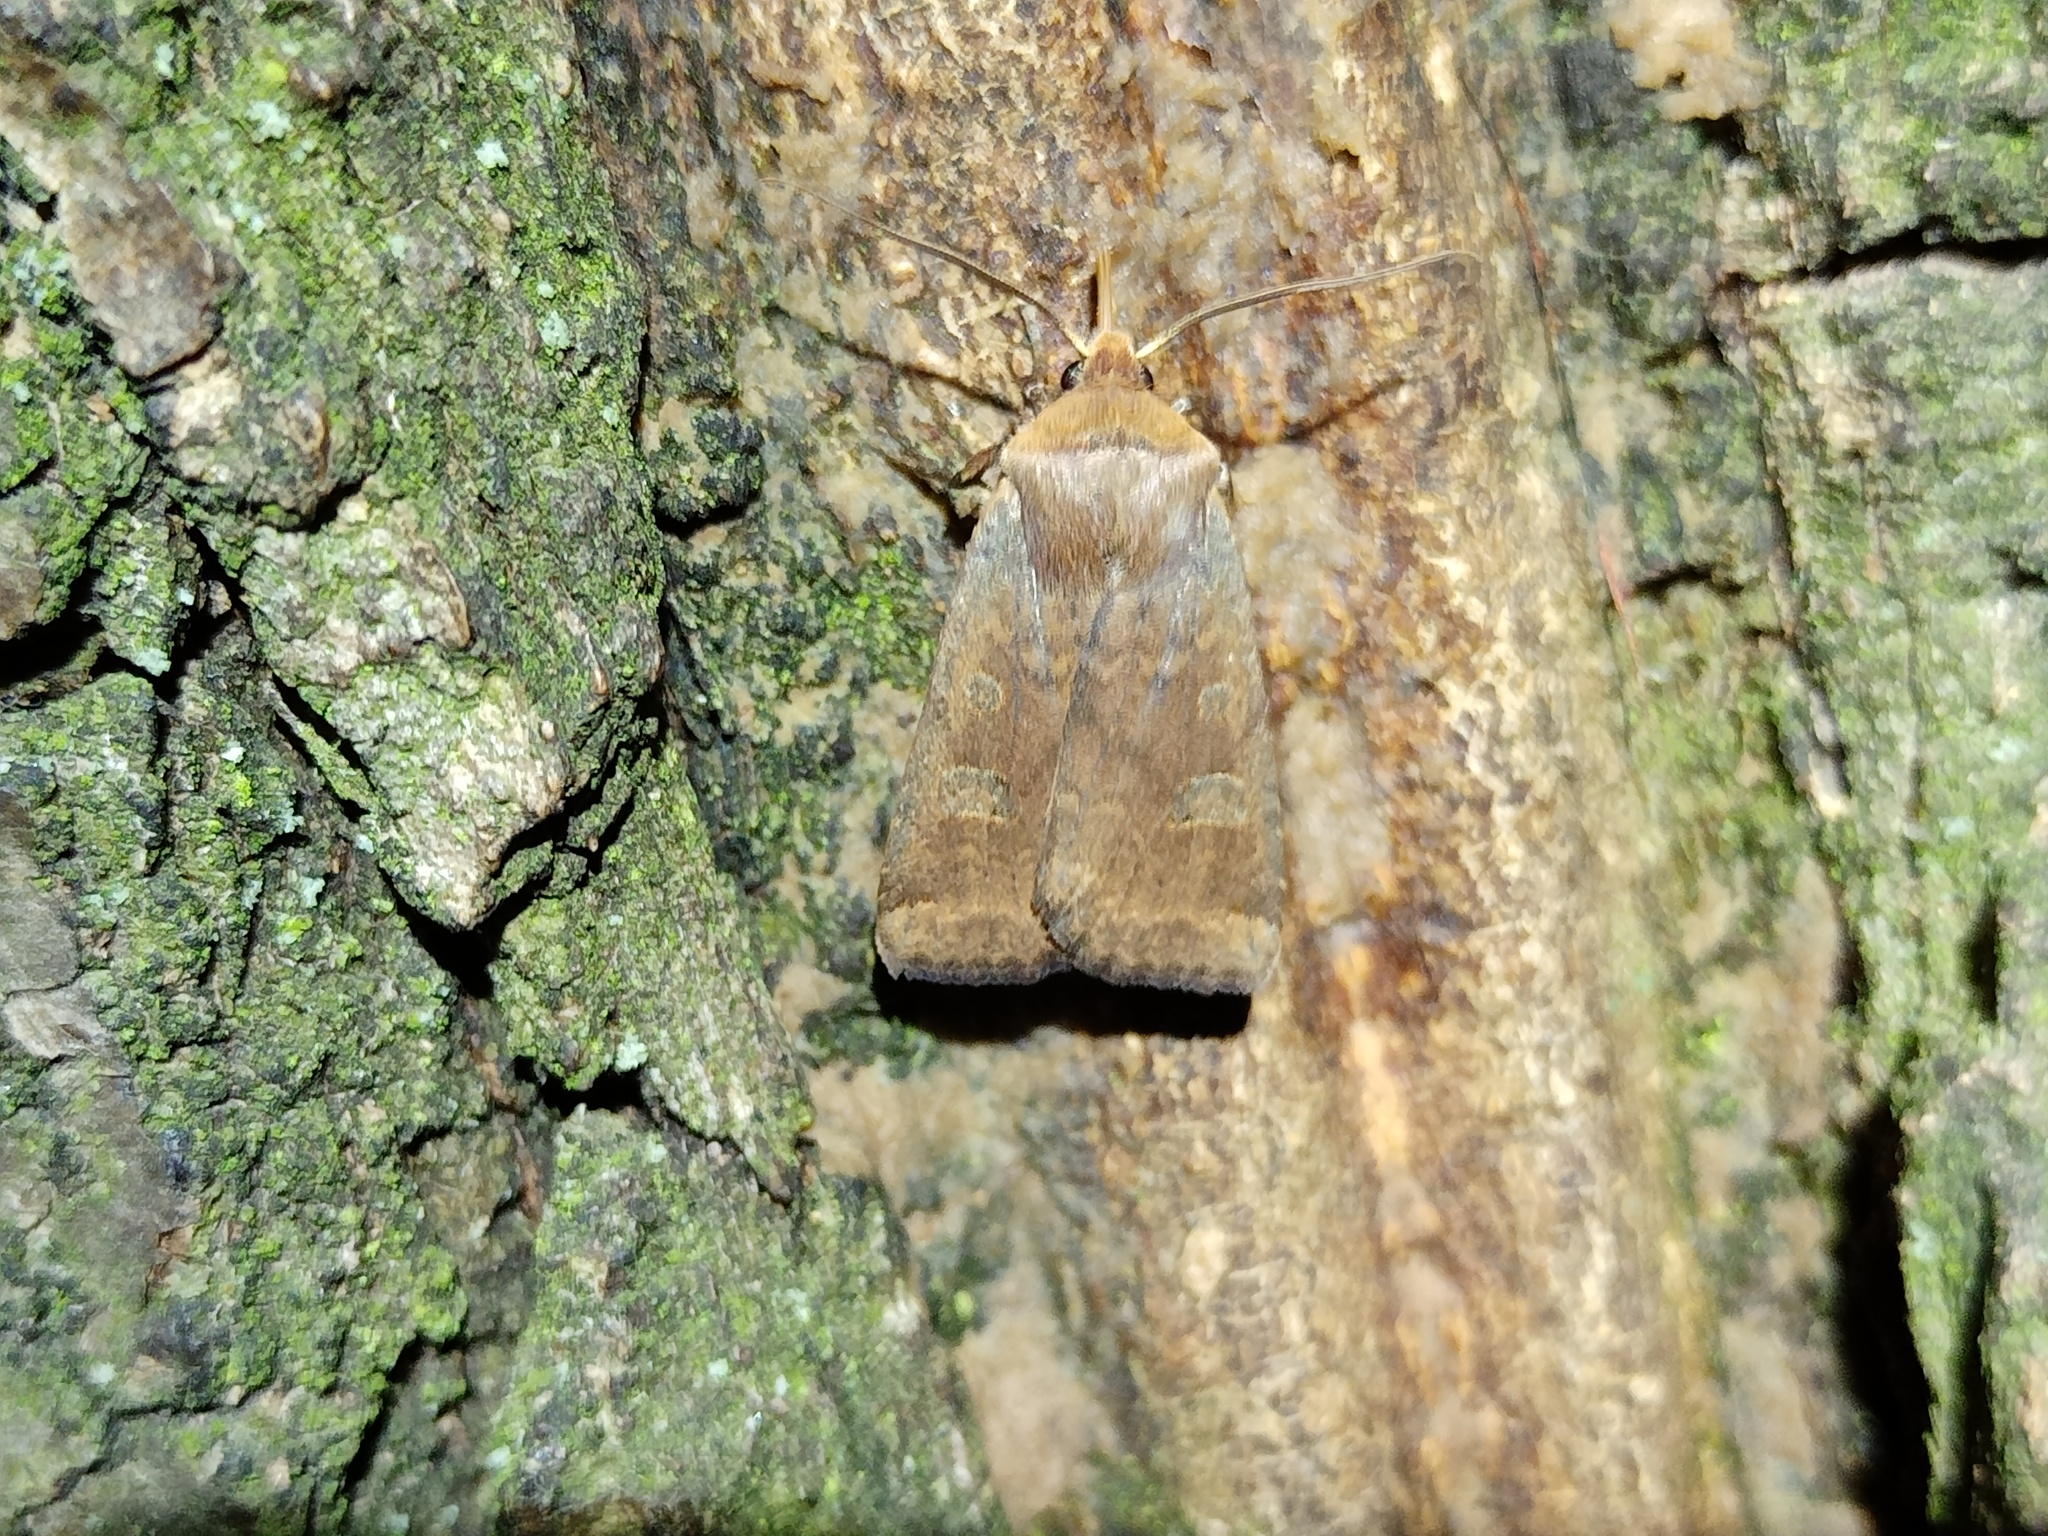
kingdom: Animalia
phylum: Arthropoda
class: Insecta
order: Lepidoptera
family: Noctuidae
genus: Conistra
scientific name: Conistra erythrocephala
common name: Red-headed chestnut
